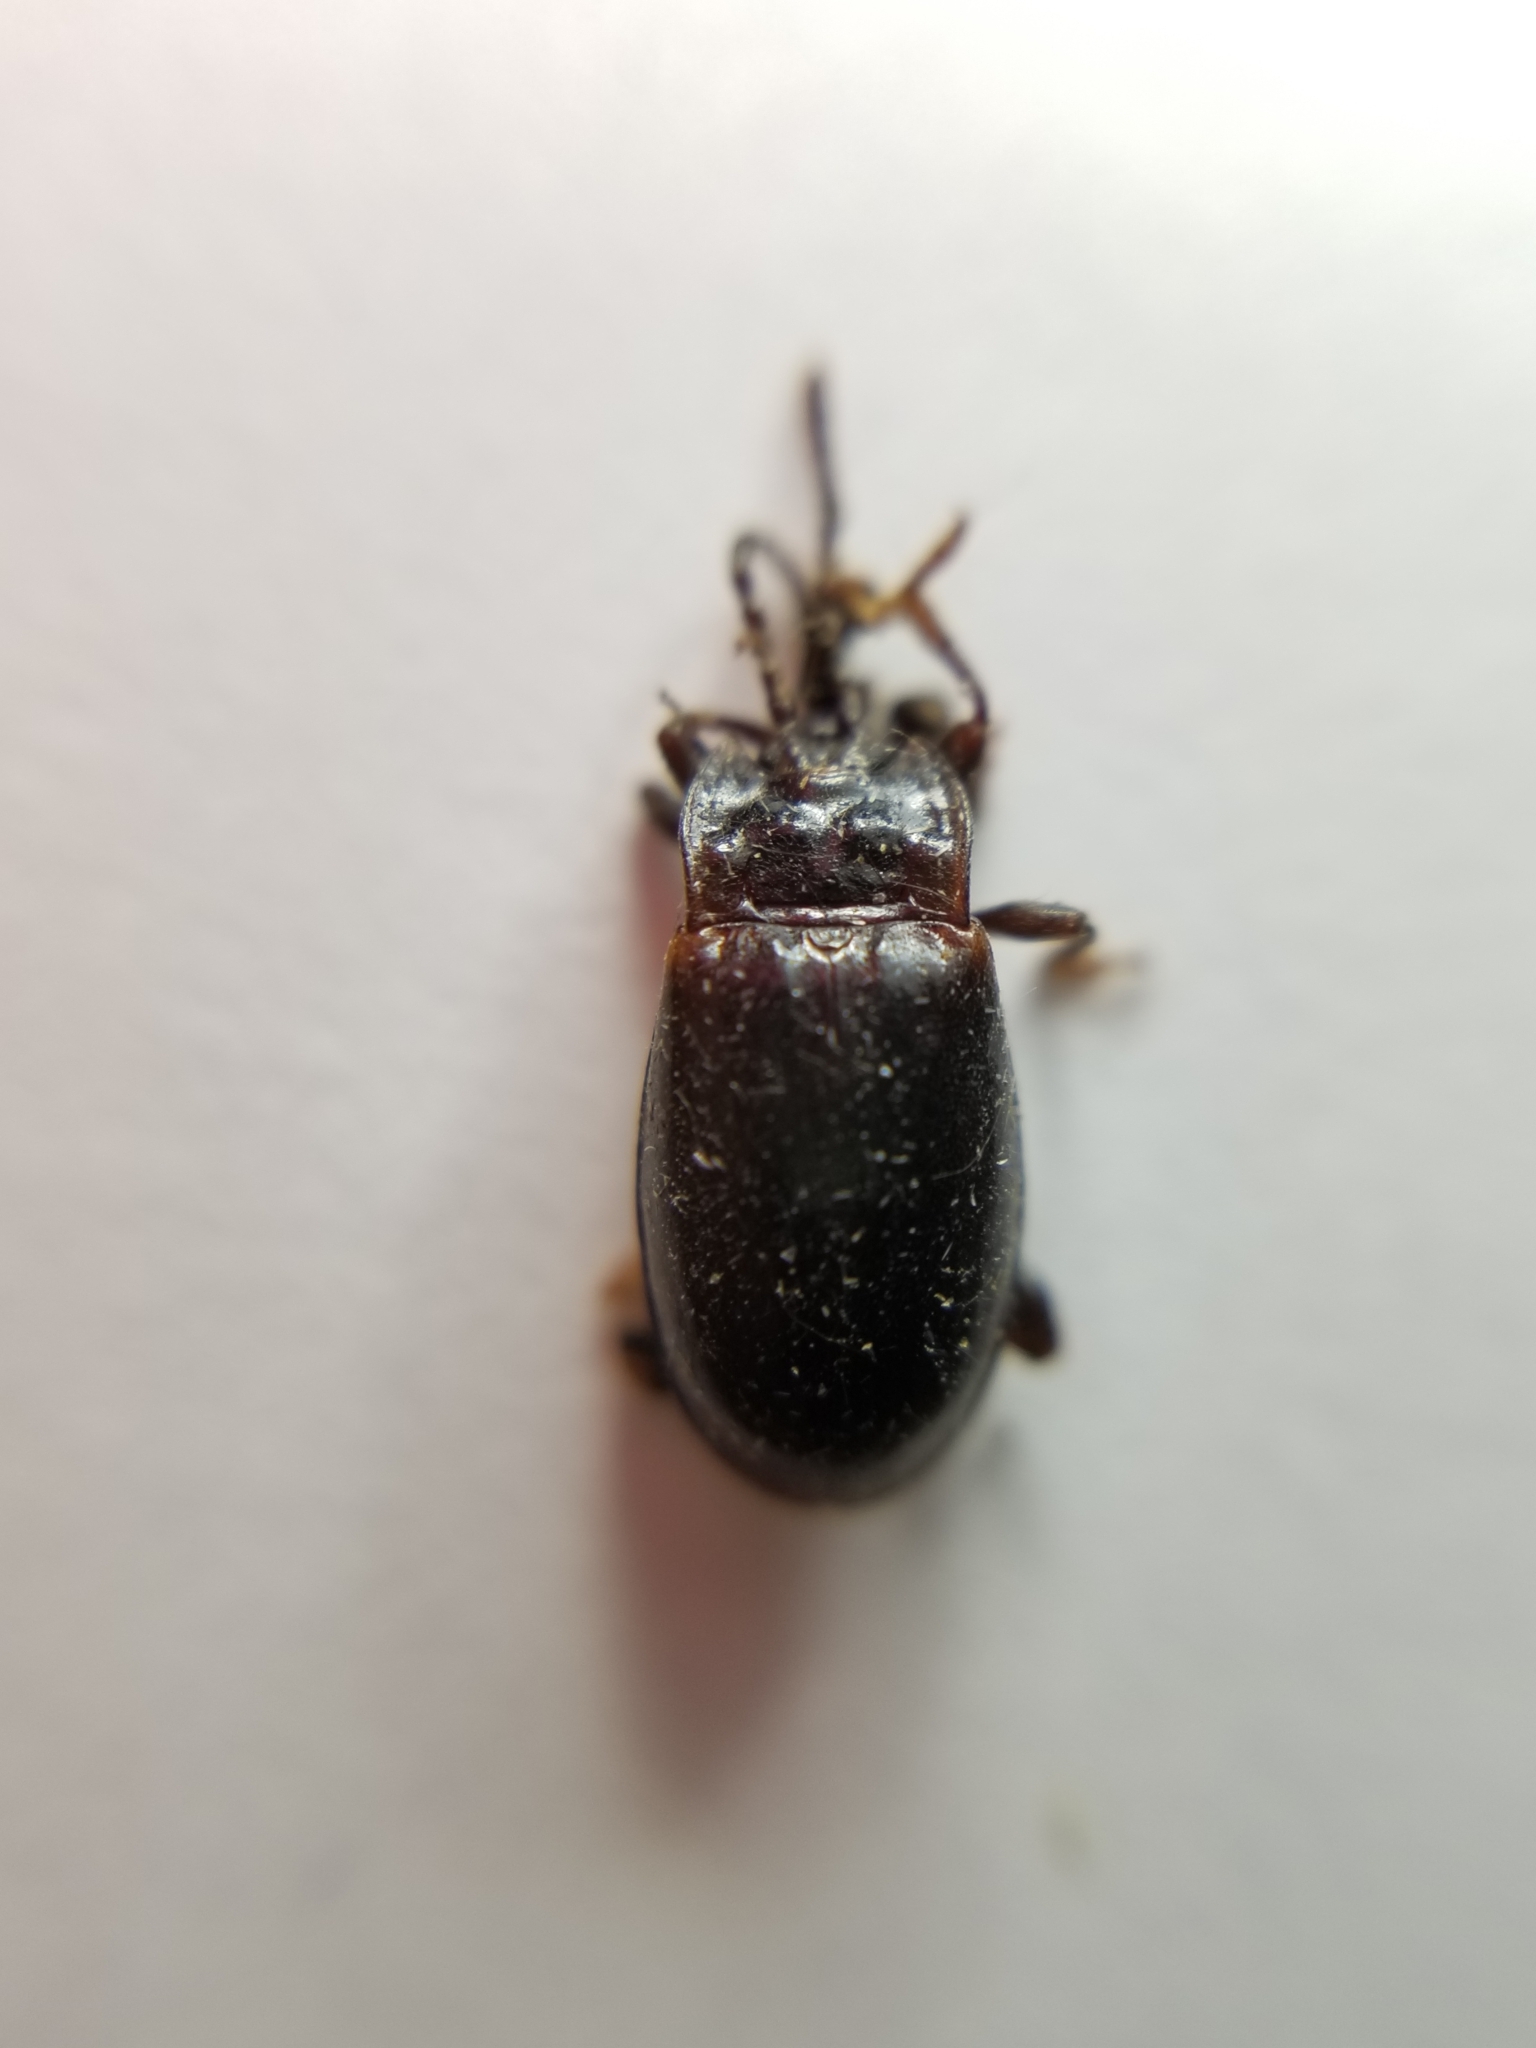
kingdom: Animalia
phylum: Arthropoda
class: Insecta
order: Coleoptera
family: Endomychidae
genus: Aphorista
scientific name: Aphorista morosa
